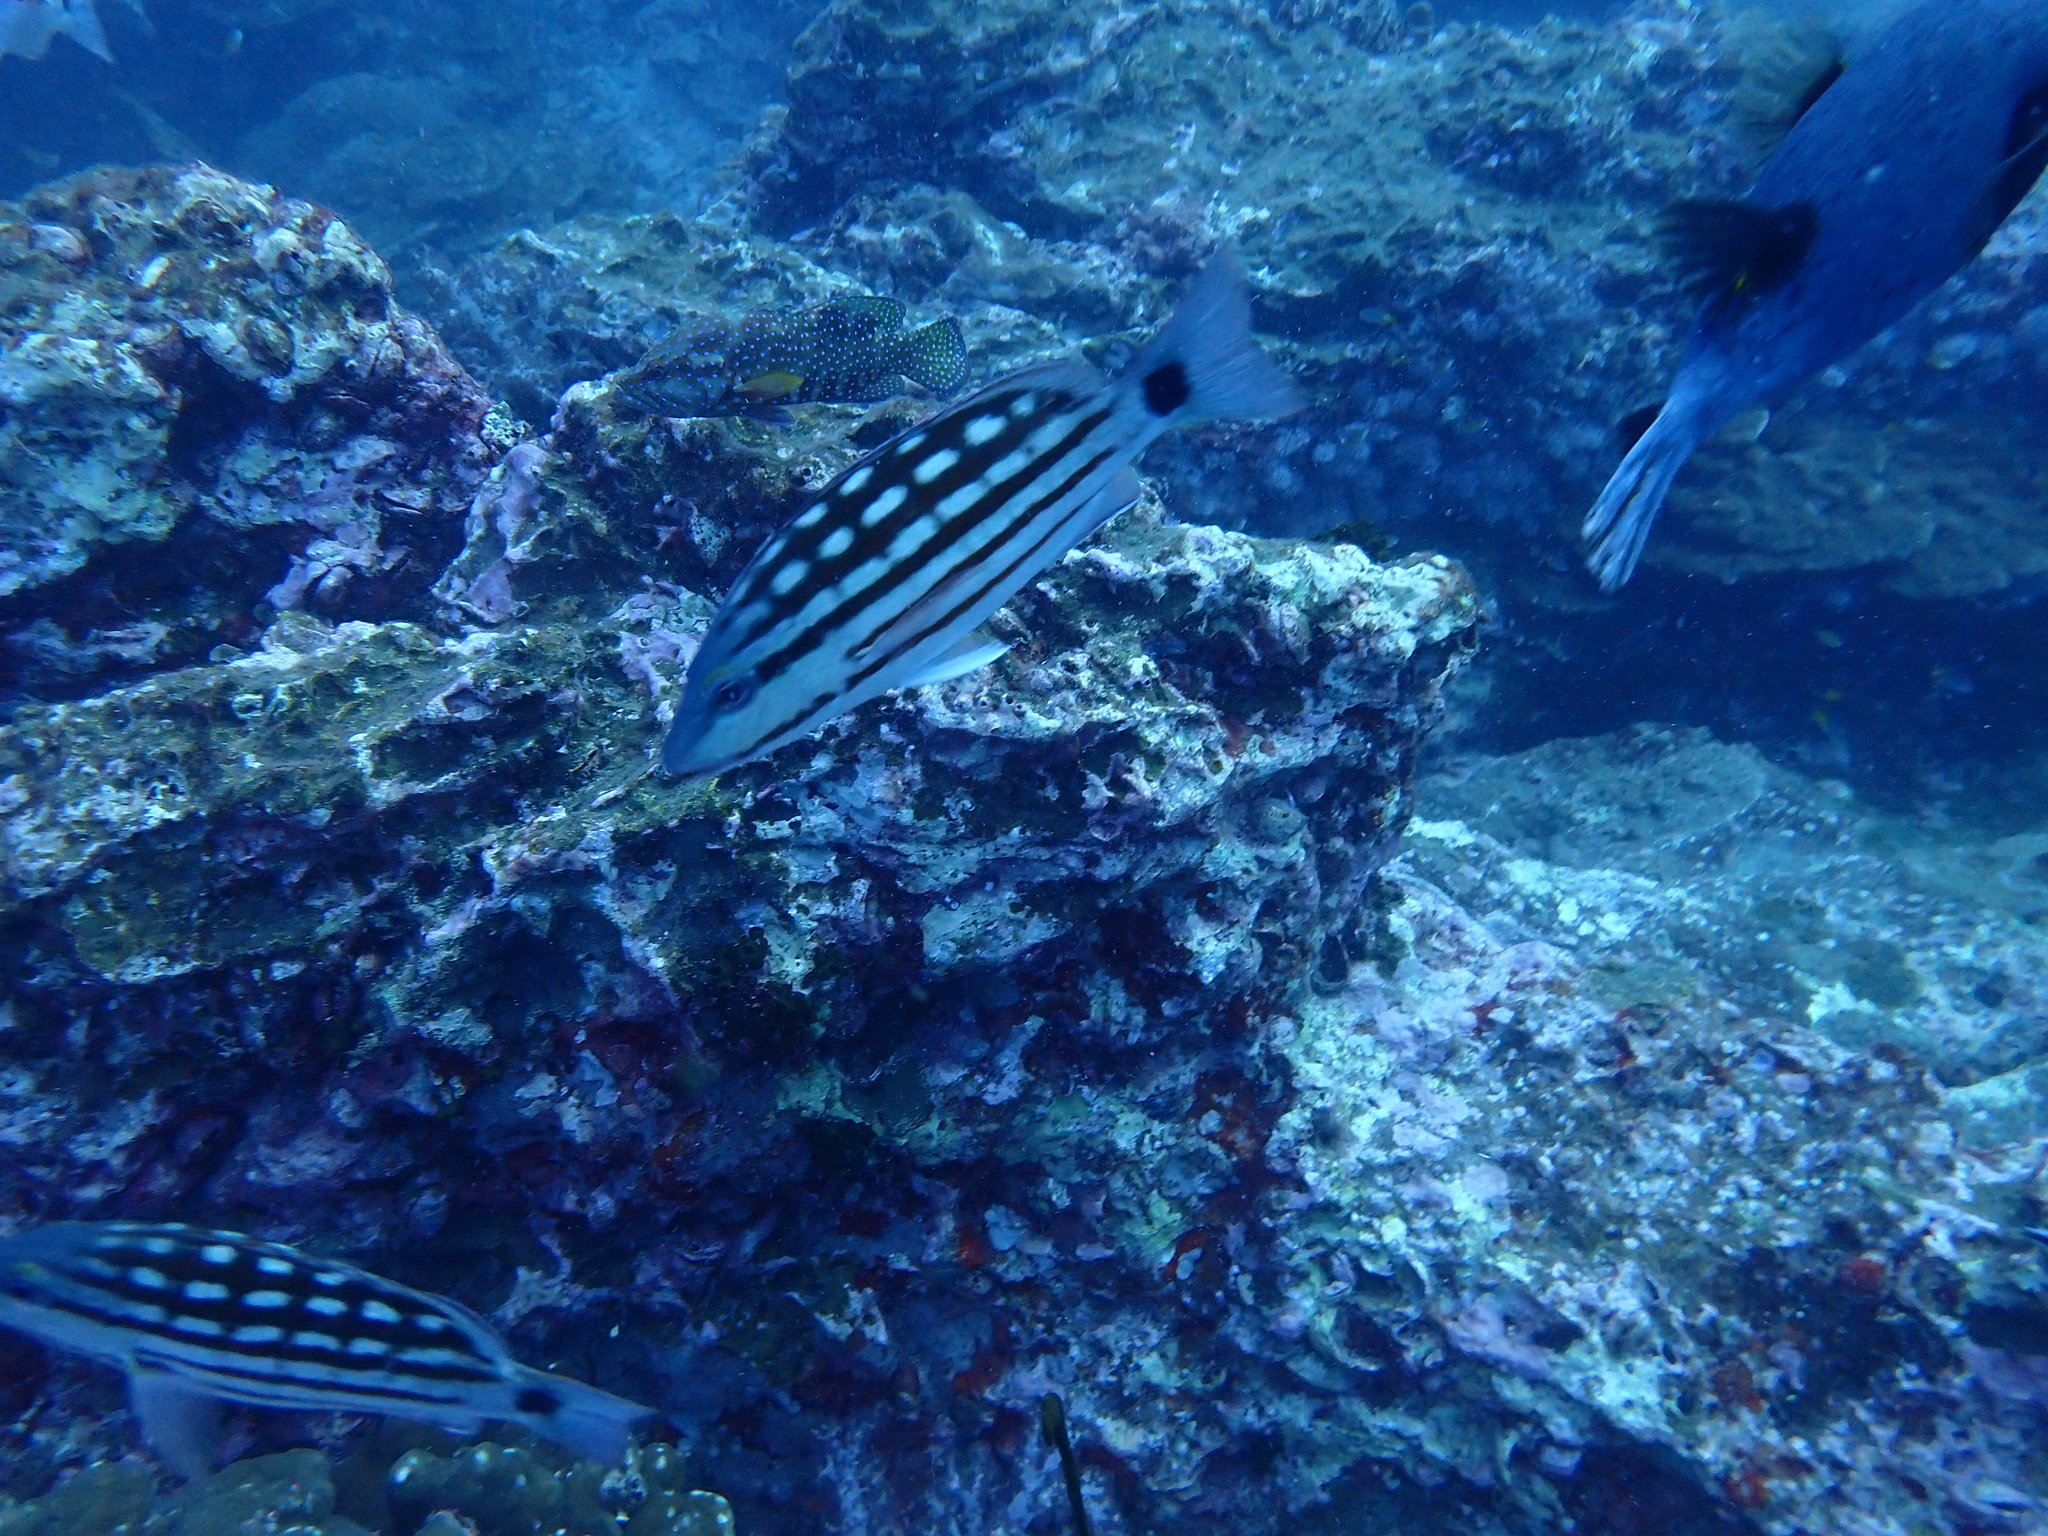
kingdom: Animalia
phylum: Chordata
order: Perciformes
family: Lutjanidae
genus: Lutjanus
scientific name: Lutjanus decussatus
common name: Checkered snapper
